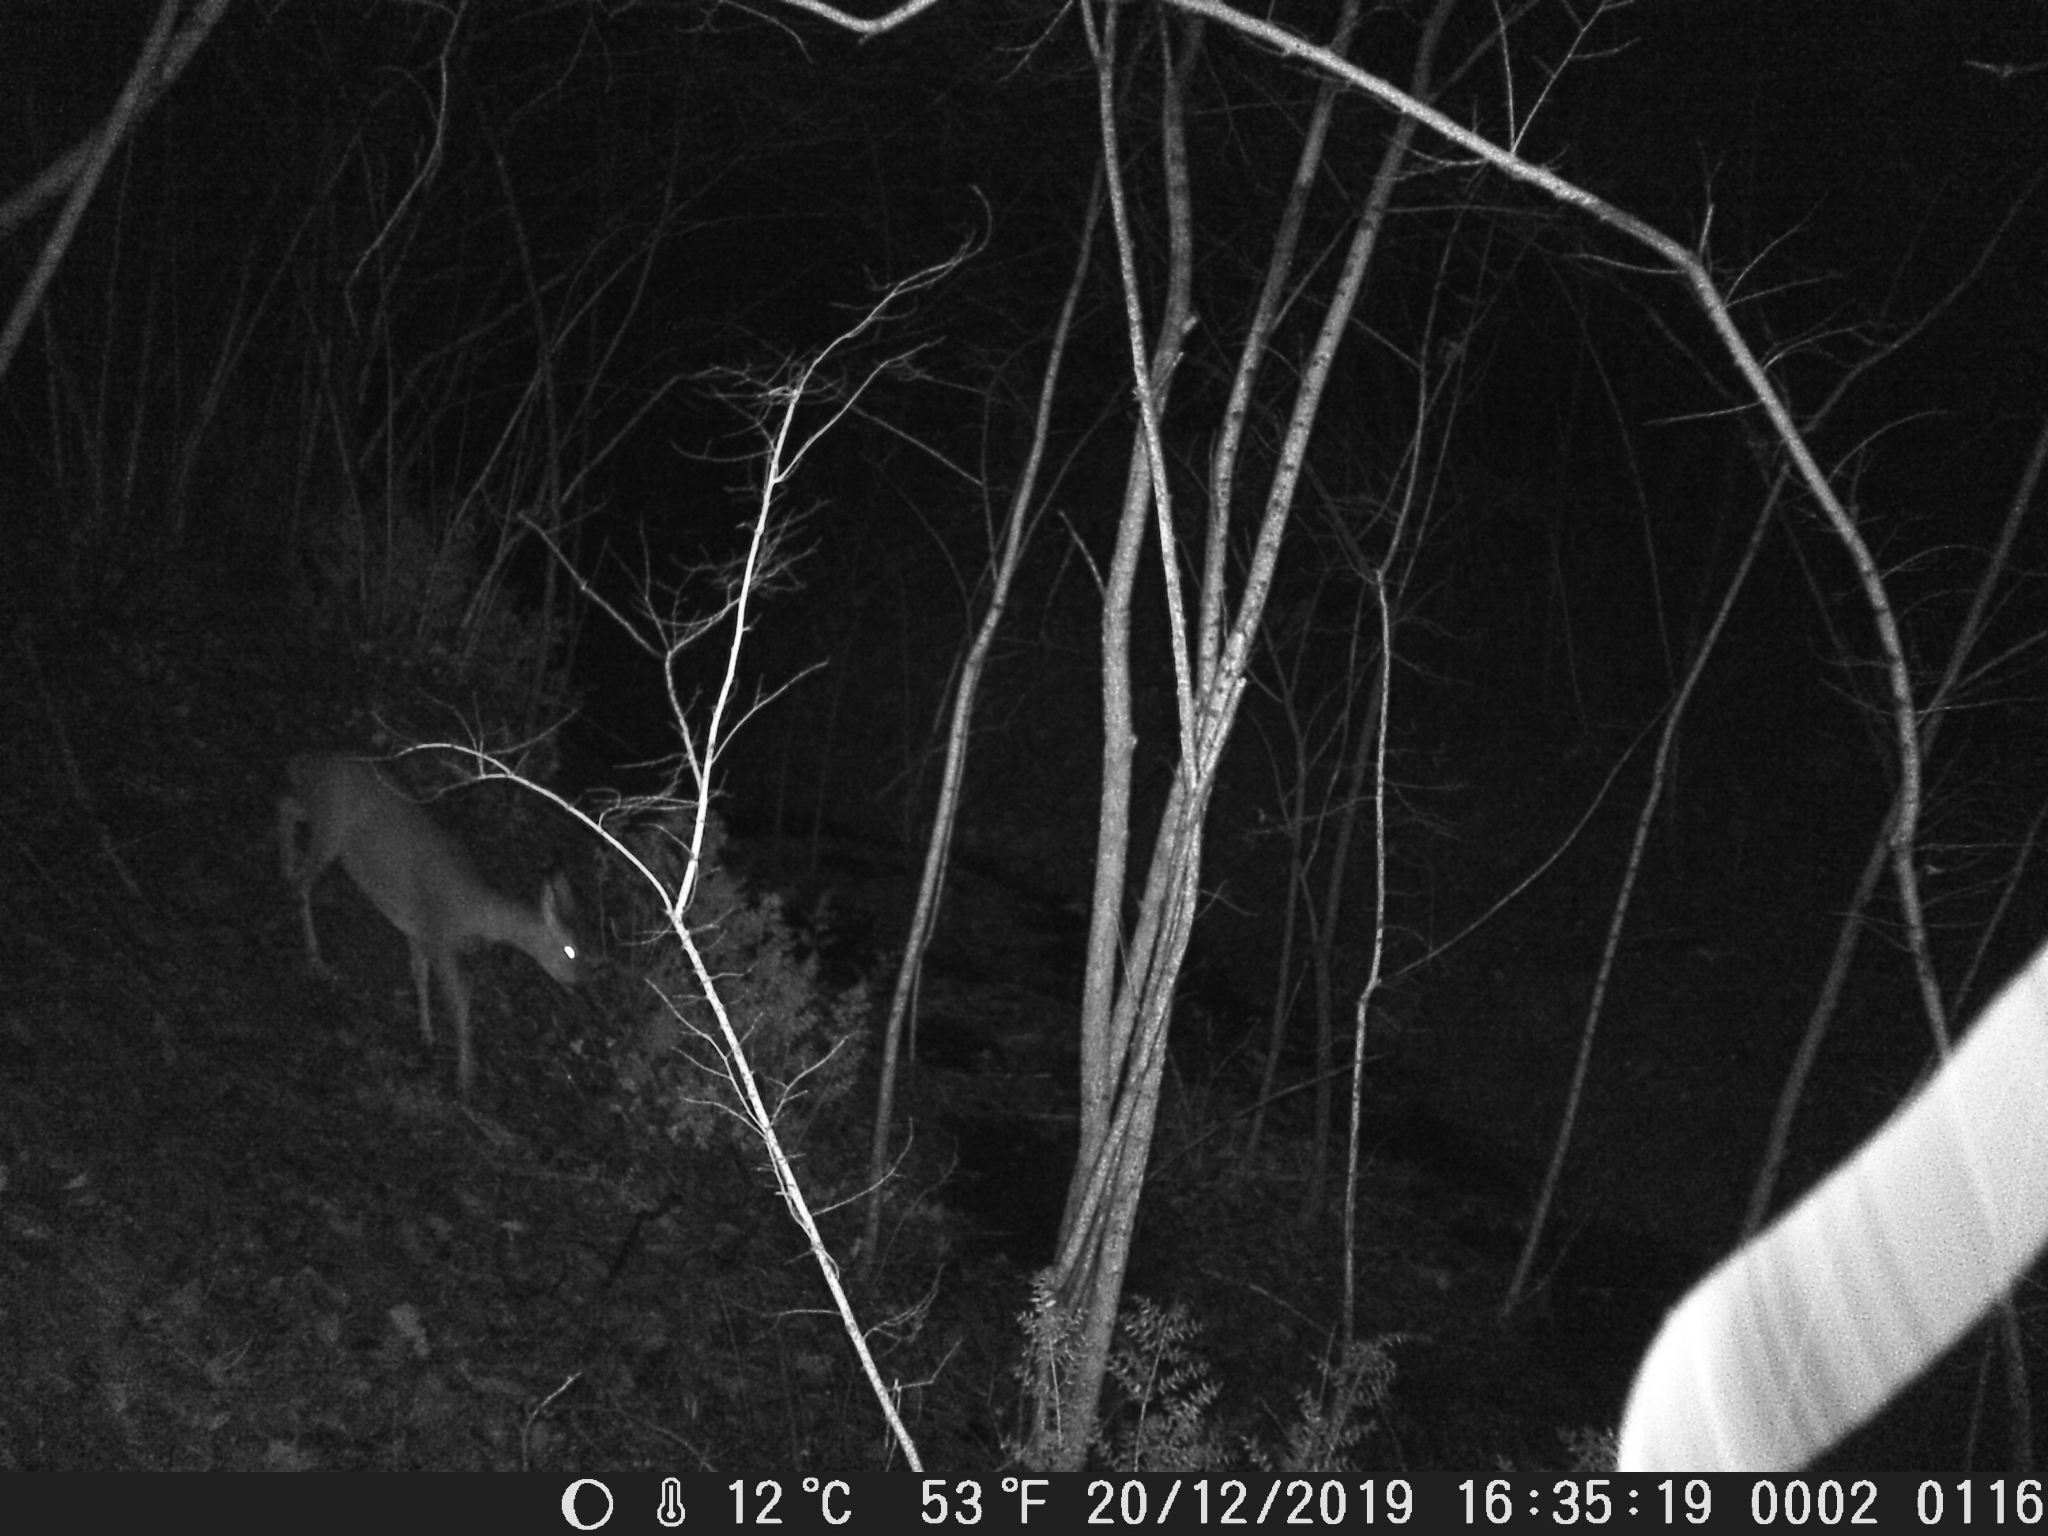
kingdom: Animalia
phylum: Chordata
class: Mammalia
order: Artiodactyla
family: Cervidae
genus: Capreolus
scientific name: Capreolus capreolus
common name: Western roe deer
